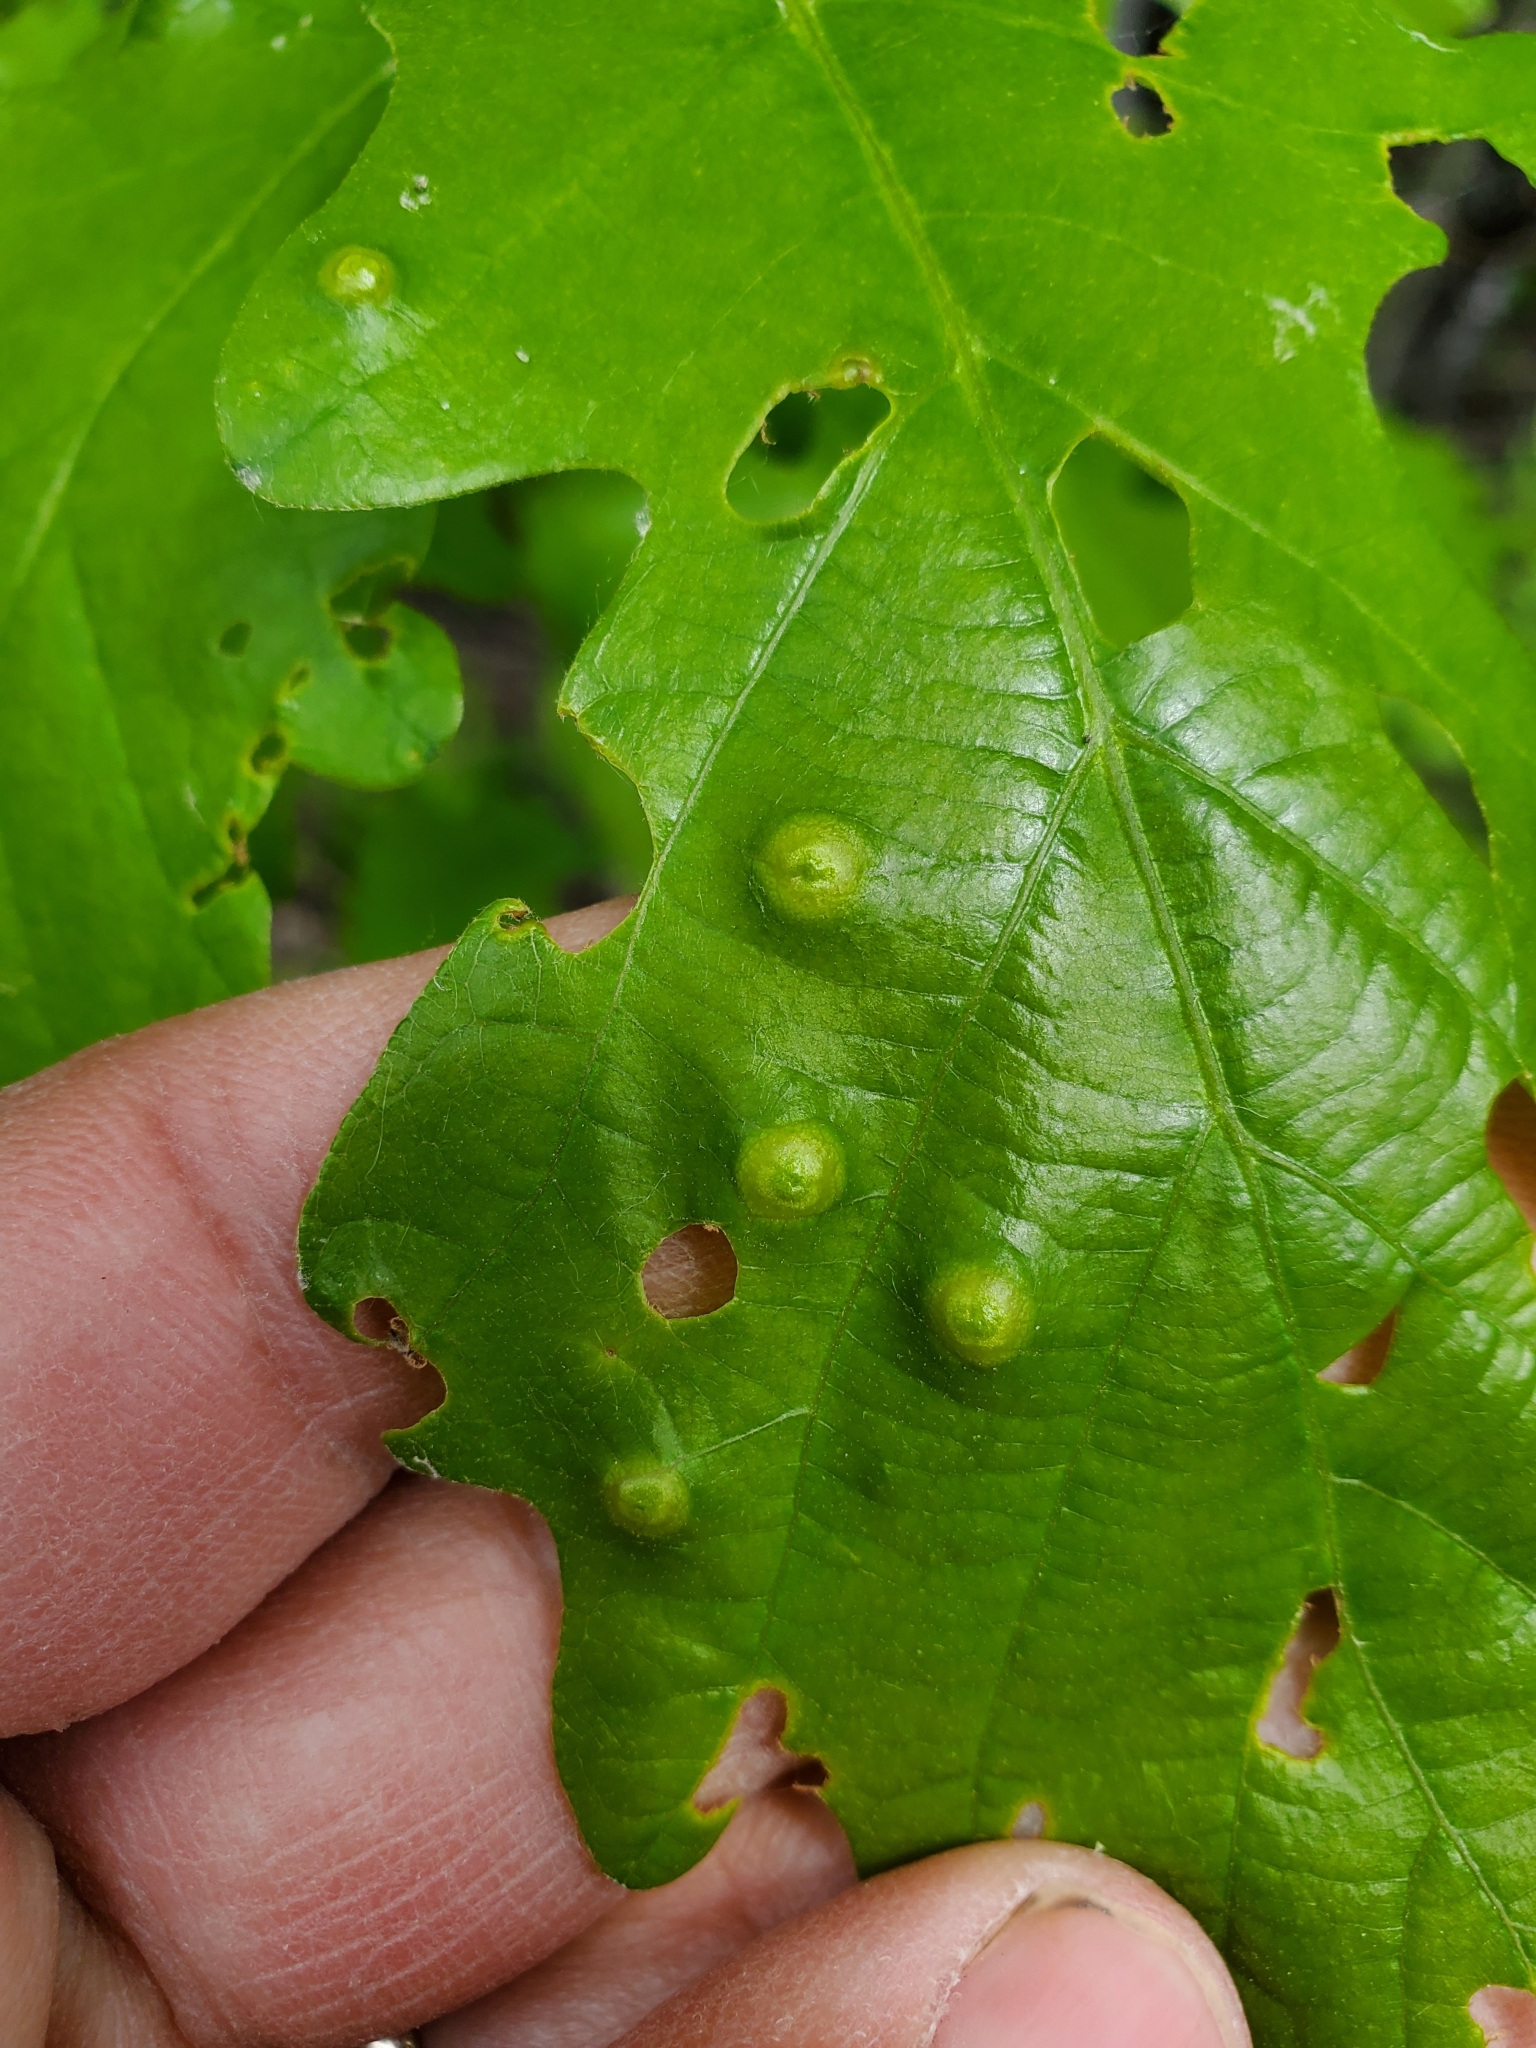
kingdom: Animalia
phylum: Arthropoda
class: Insecta
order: Hymenoptera
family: Cynipidae
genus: Callirhytis
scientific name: Callirhytis
